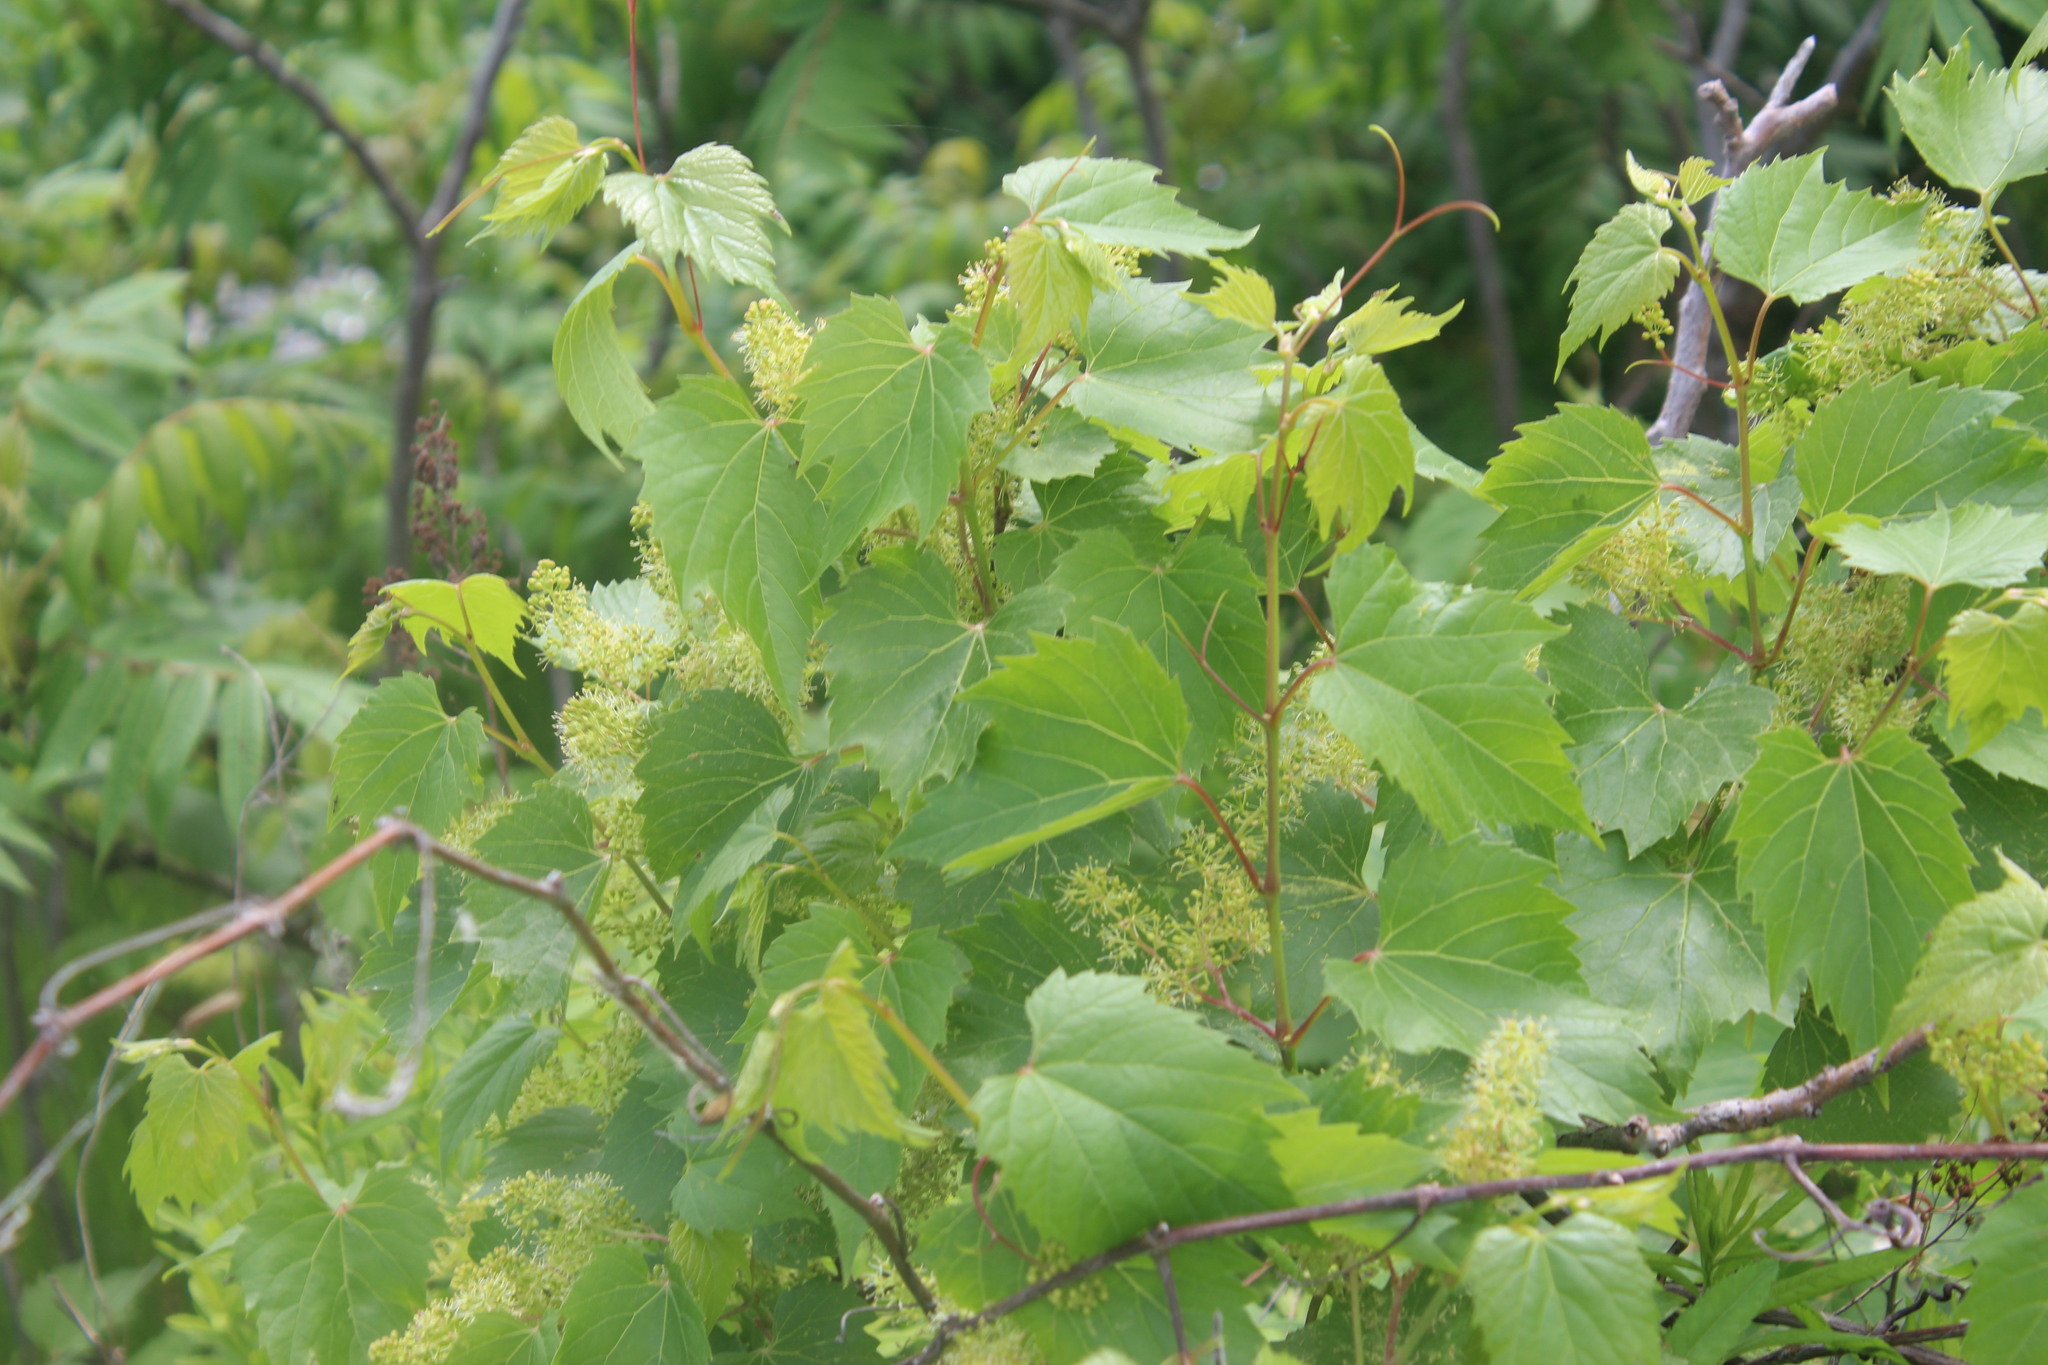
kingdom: Plantae
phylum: Tracheophyta
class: Magnoliopsida
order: Vitales
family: Vitaceae
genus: Vitis
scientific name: Vitis riparia
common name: Frost grape
